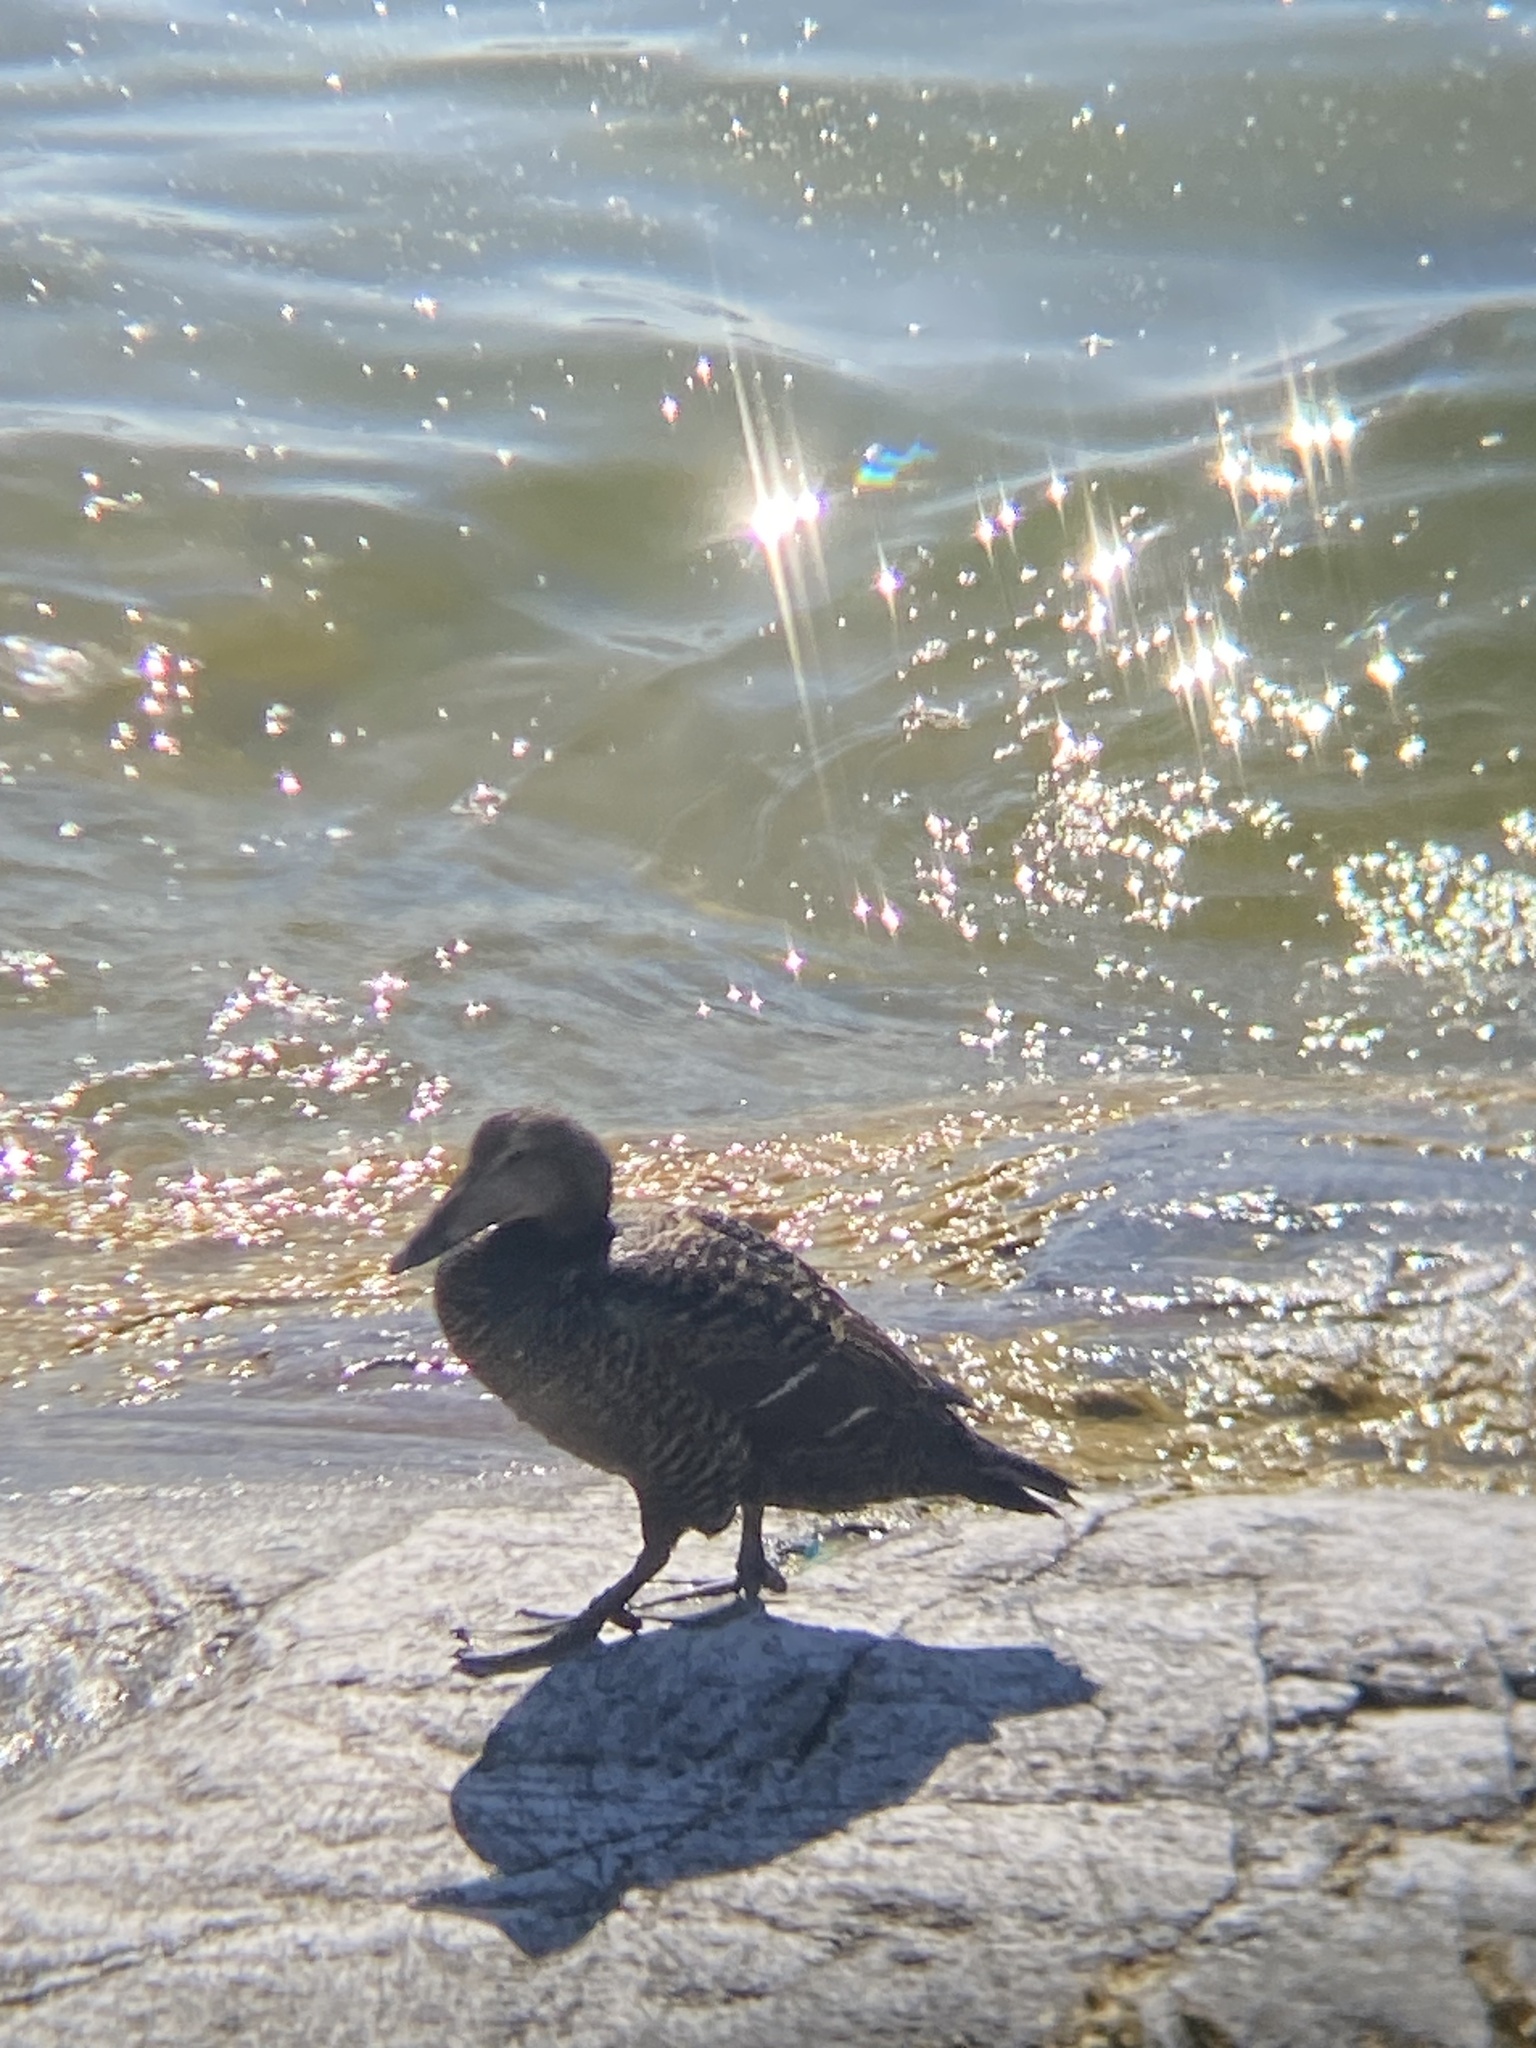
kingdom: Animalia
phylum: Chordata
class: Aves
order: Anseriformes
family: Anatidae
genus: Somateria
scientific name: Somateria mollissima
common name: Common eider
